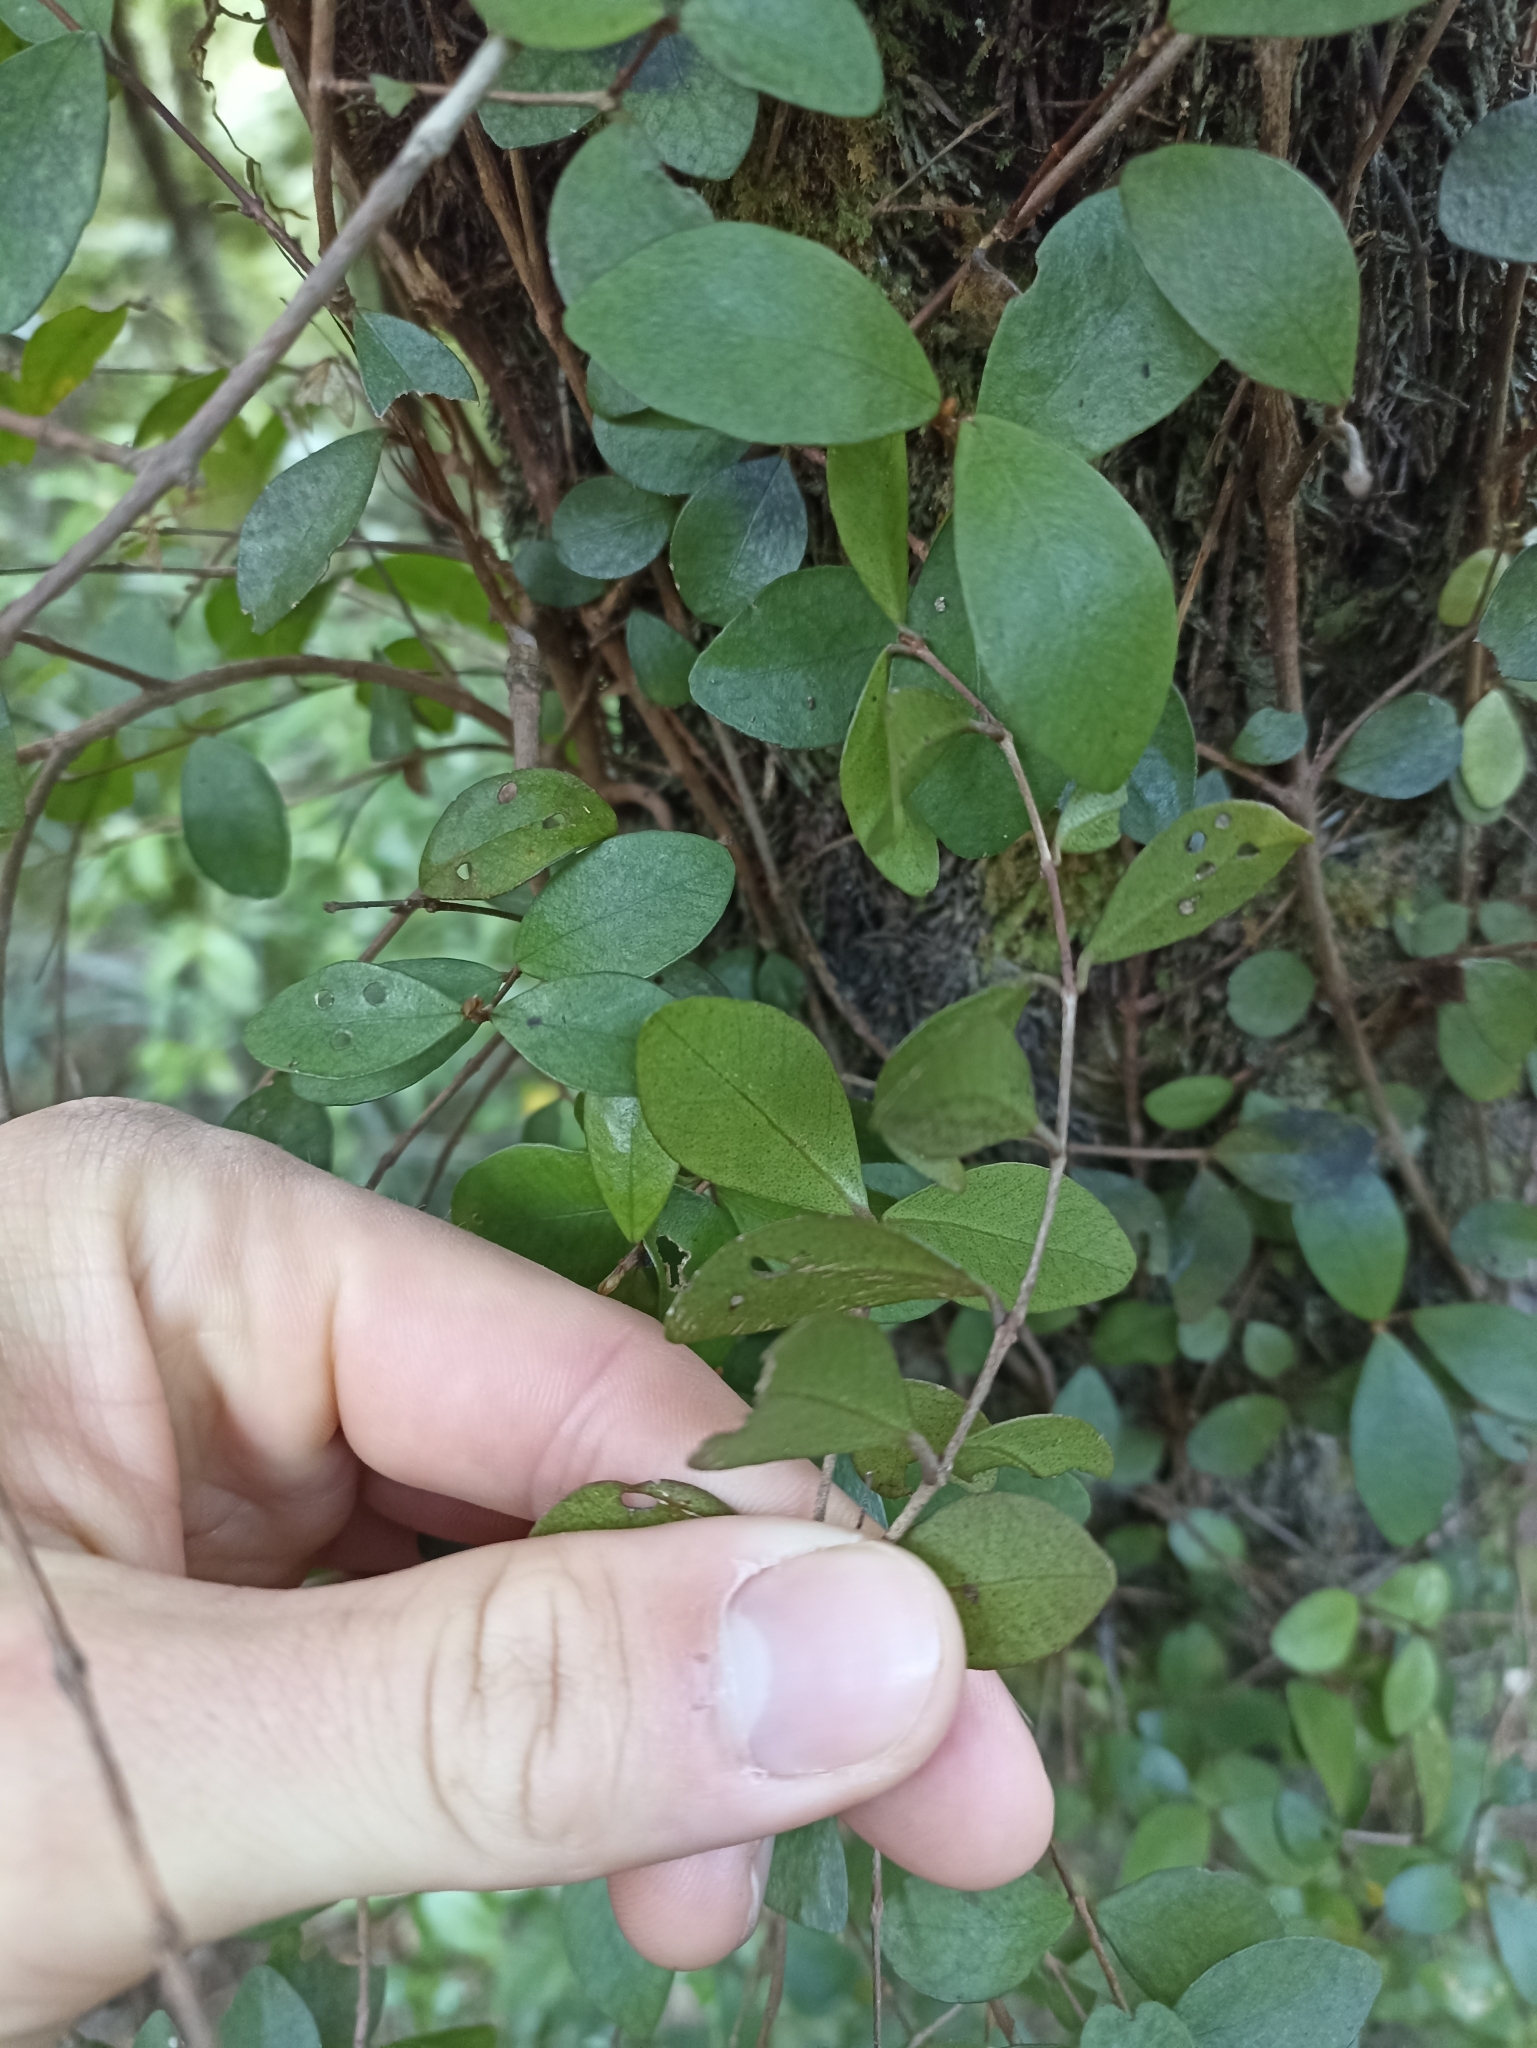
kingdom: Plantae
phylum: Tracheophyta
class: Magnoliopsida
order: Myrtales
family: Myrtaceae
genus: Metrosideros
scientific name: Metrosideros fulgens
